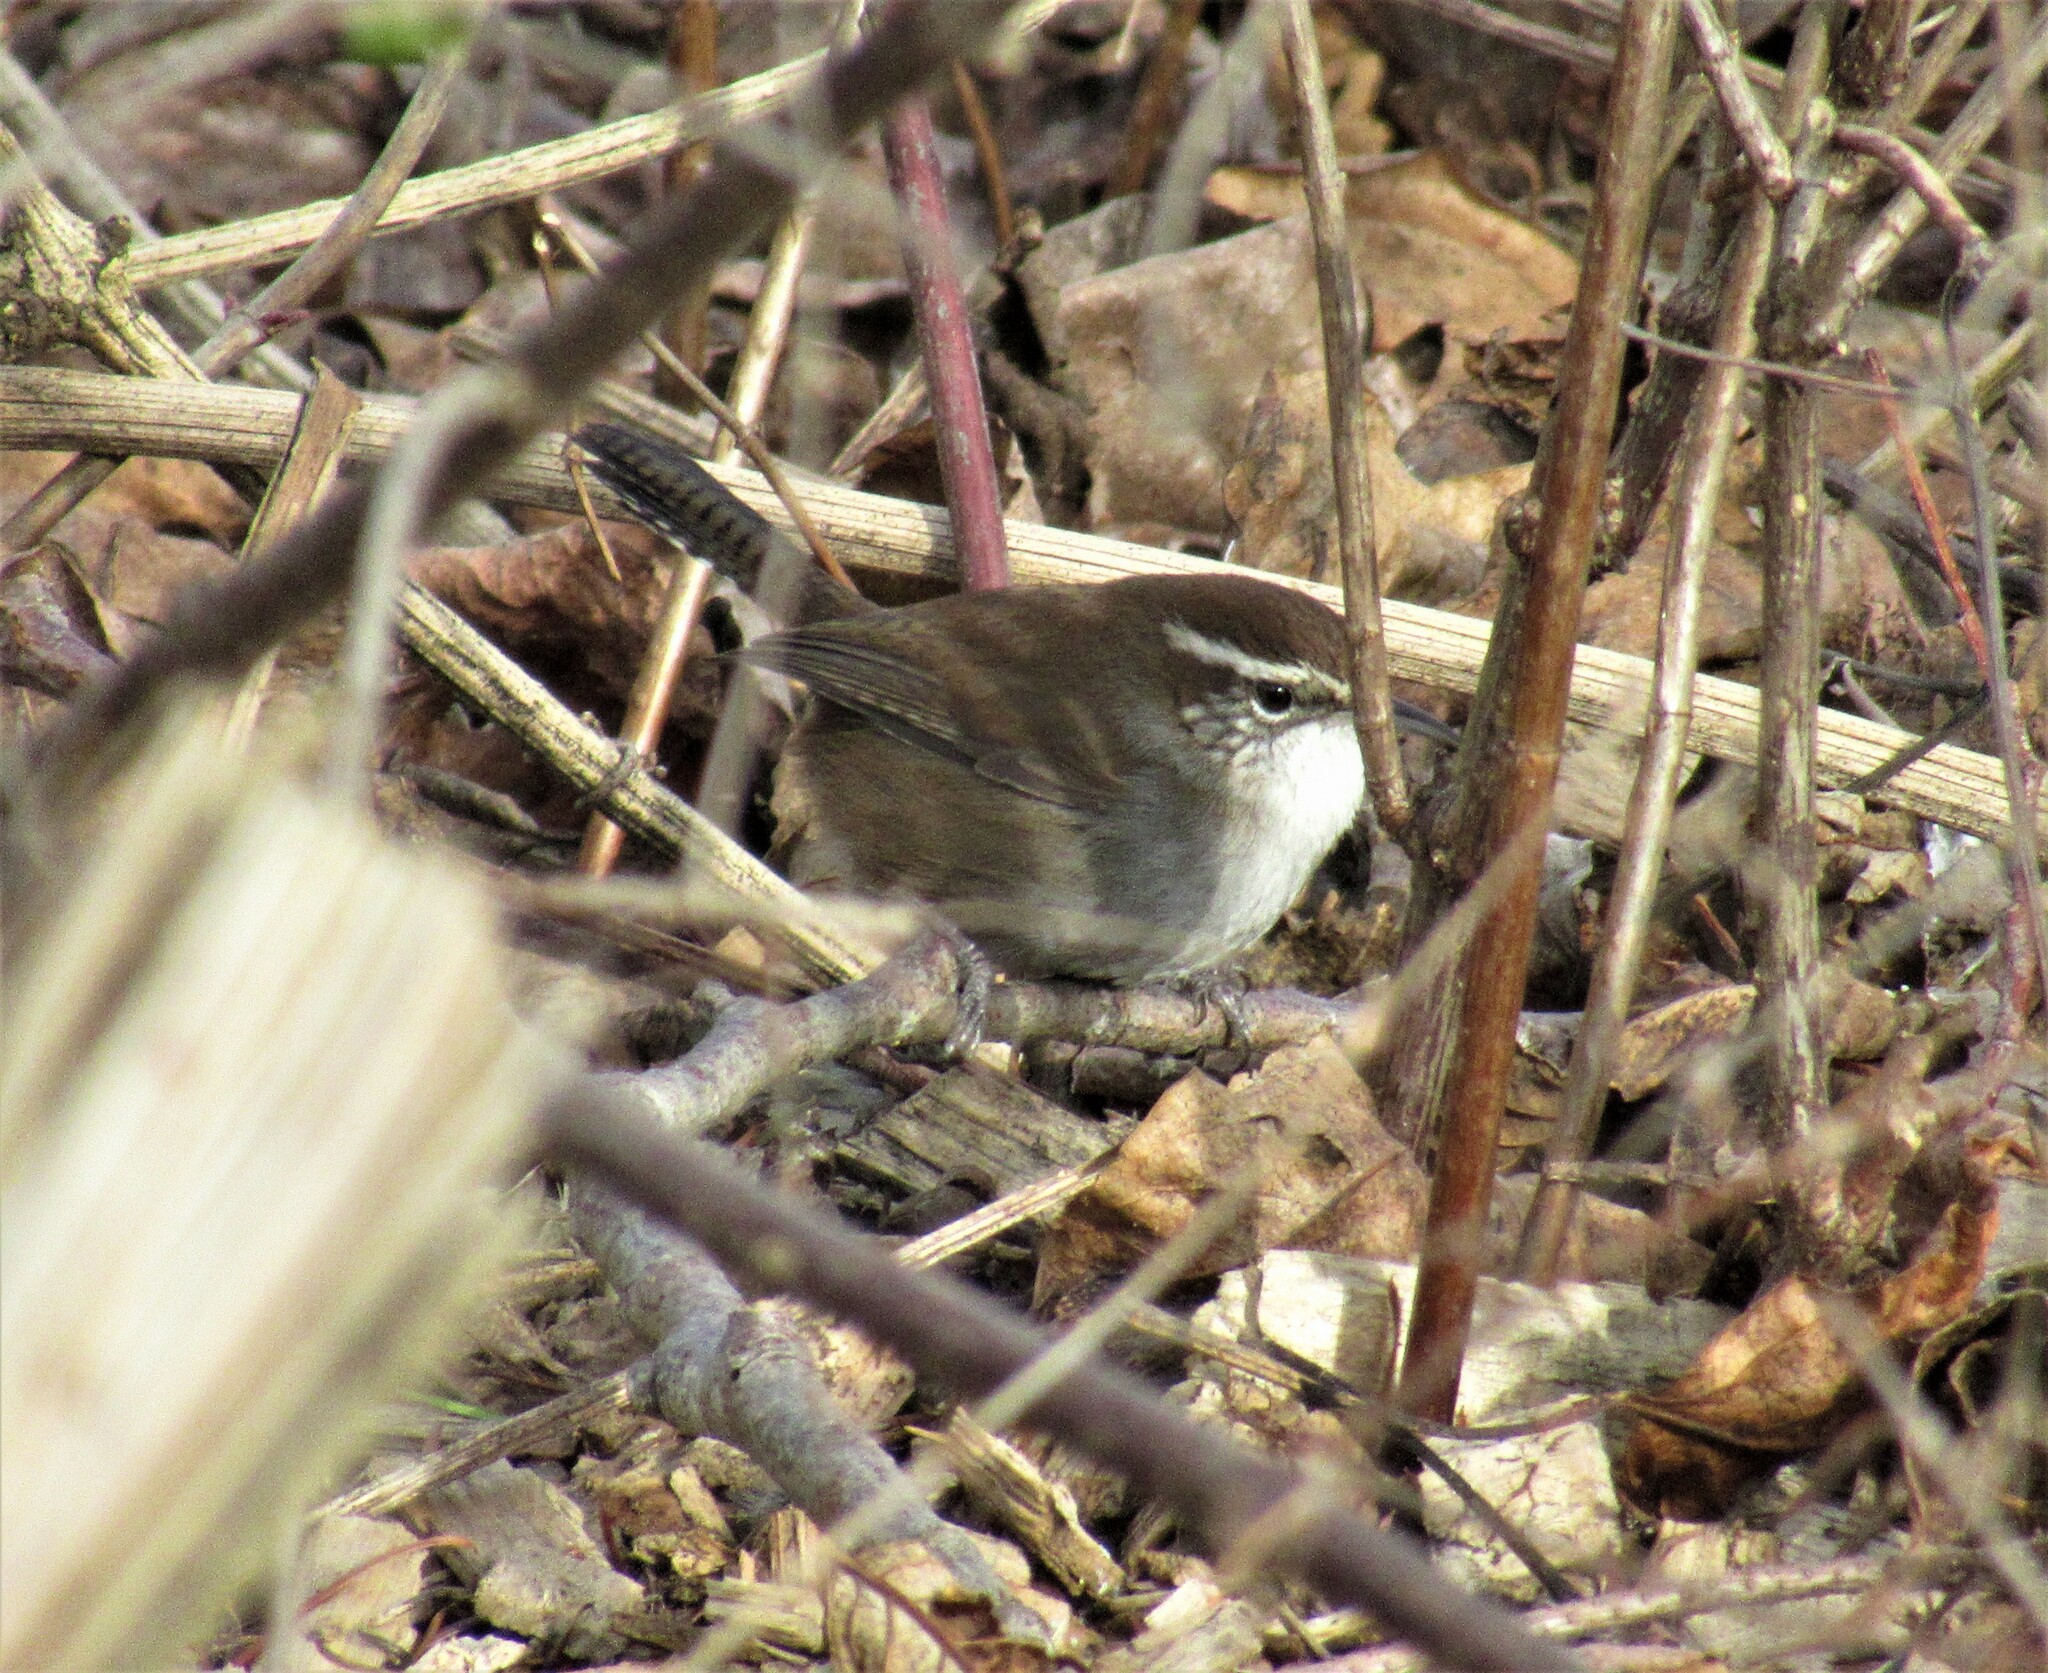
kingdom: Animalia
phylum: Chordata
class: Aves
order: Passeriformes
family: Troglodytidae
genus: Thryomanes
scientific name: Thryomanes bewickii
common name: Bewick's wren
